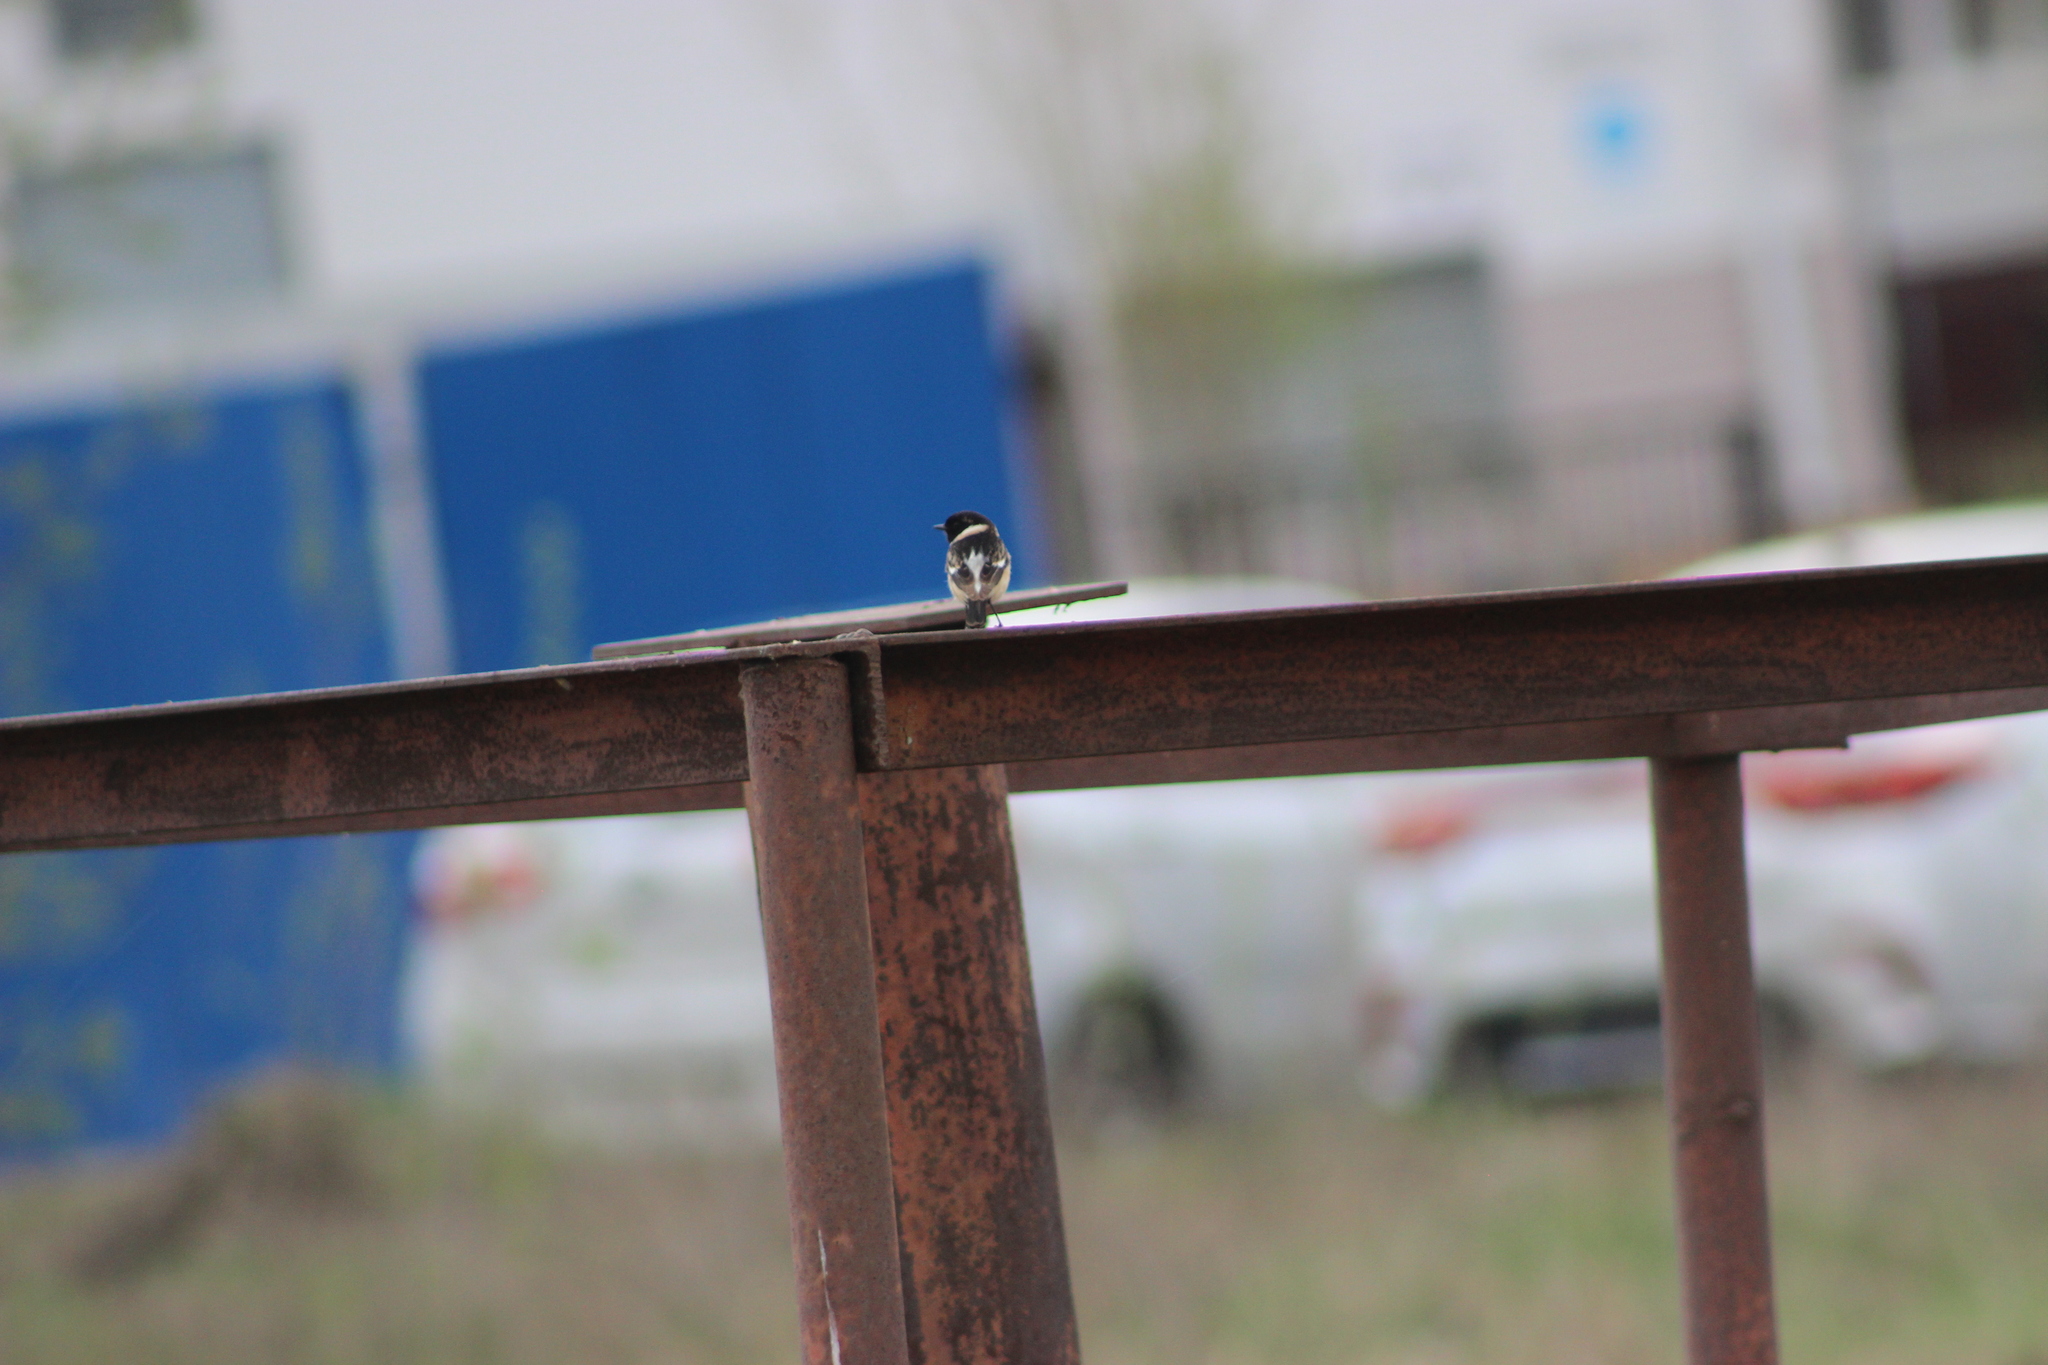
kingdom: Animalia
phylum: Chordata
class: Aves
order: Passeriformes
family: Muscicapidae
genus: Saxicola
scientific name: Saxicola maurus
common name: Siberian stonechat
